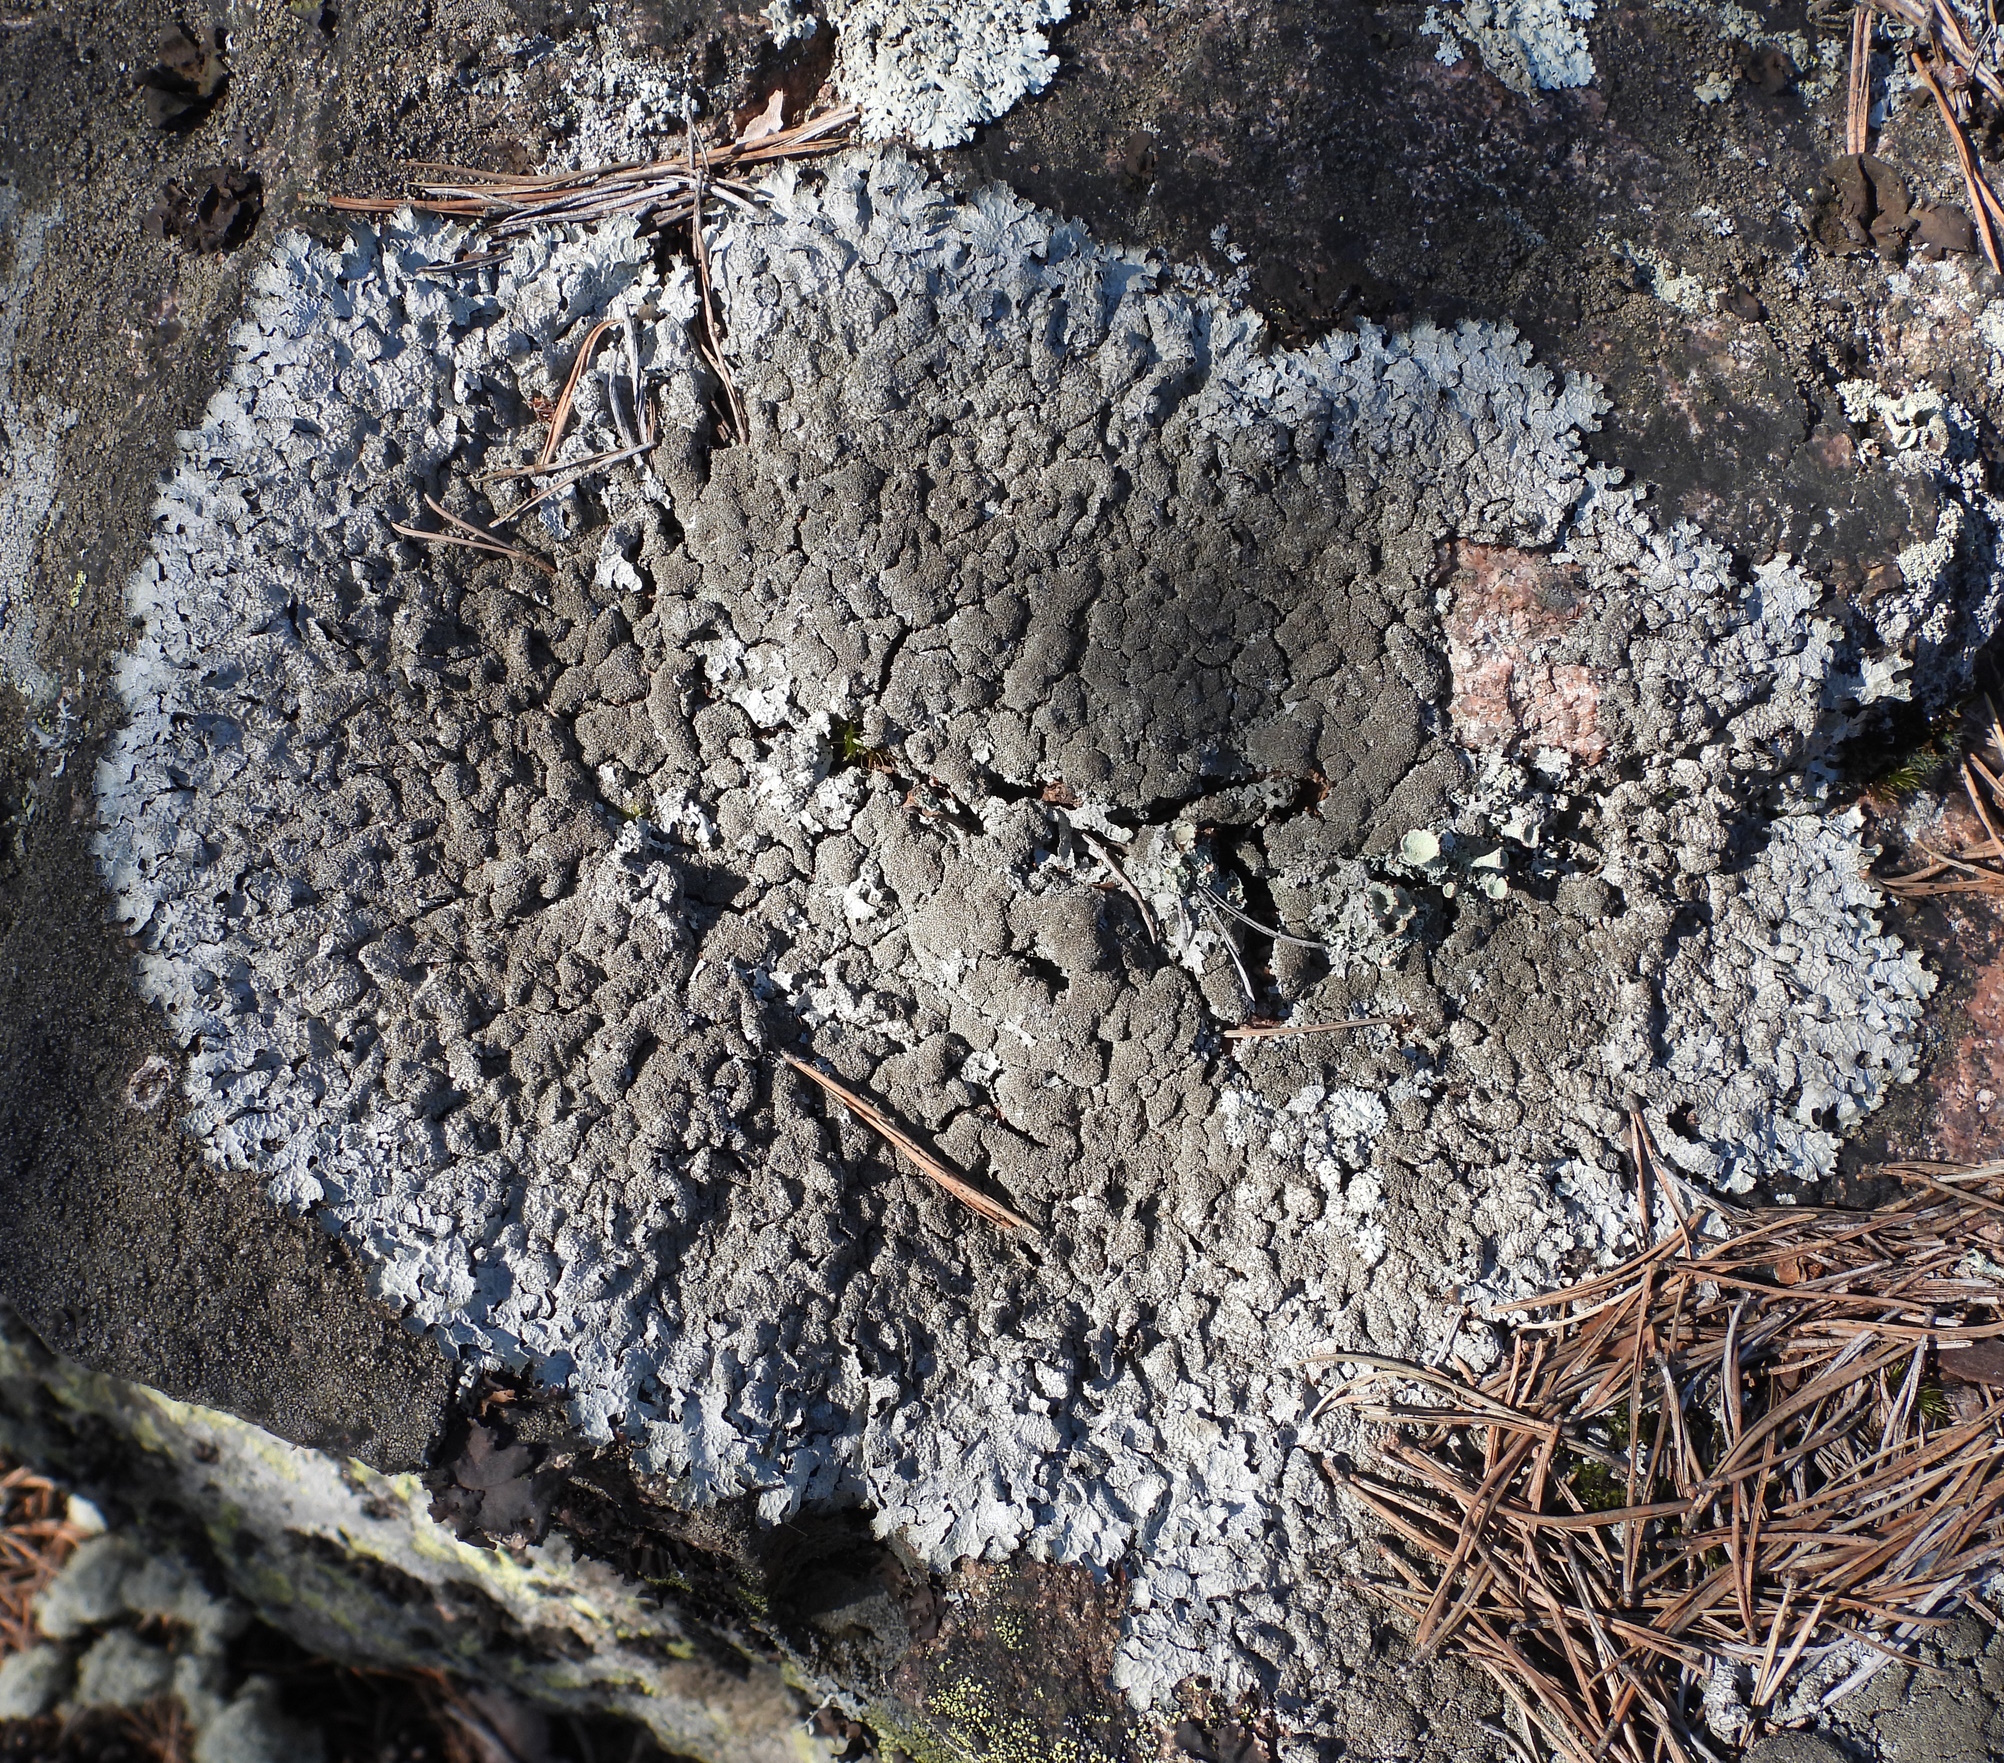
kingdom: Fungi
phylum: Ascomycota
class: Lecanoromycetes
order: Lecanorales
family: Parmeliaceae
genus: Parmelia
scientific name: Parmelia saxatilis
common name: Salted shield lichen
